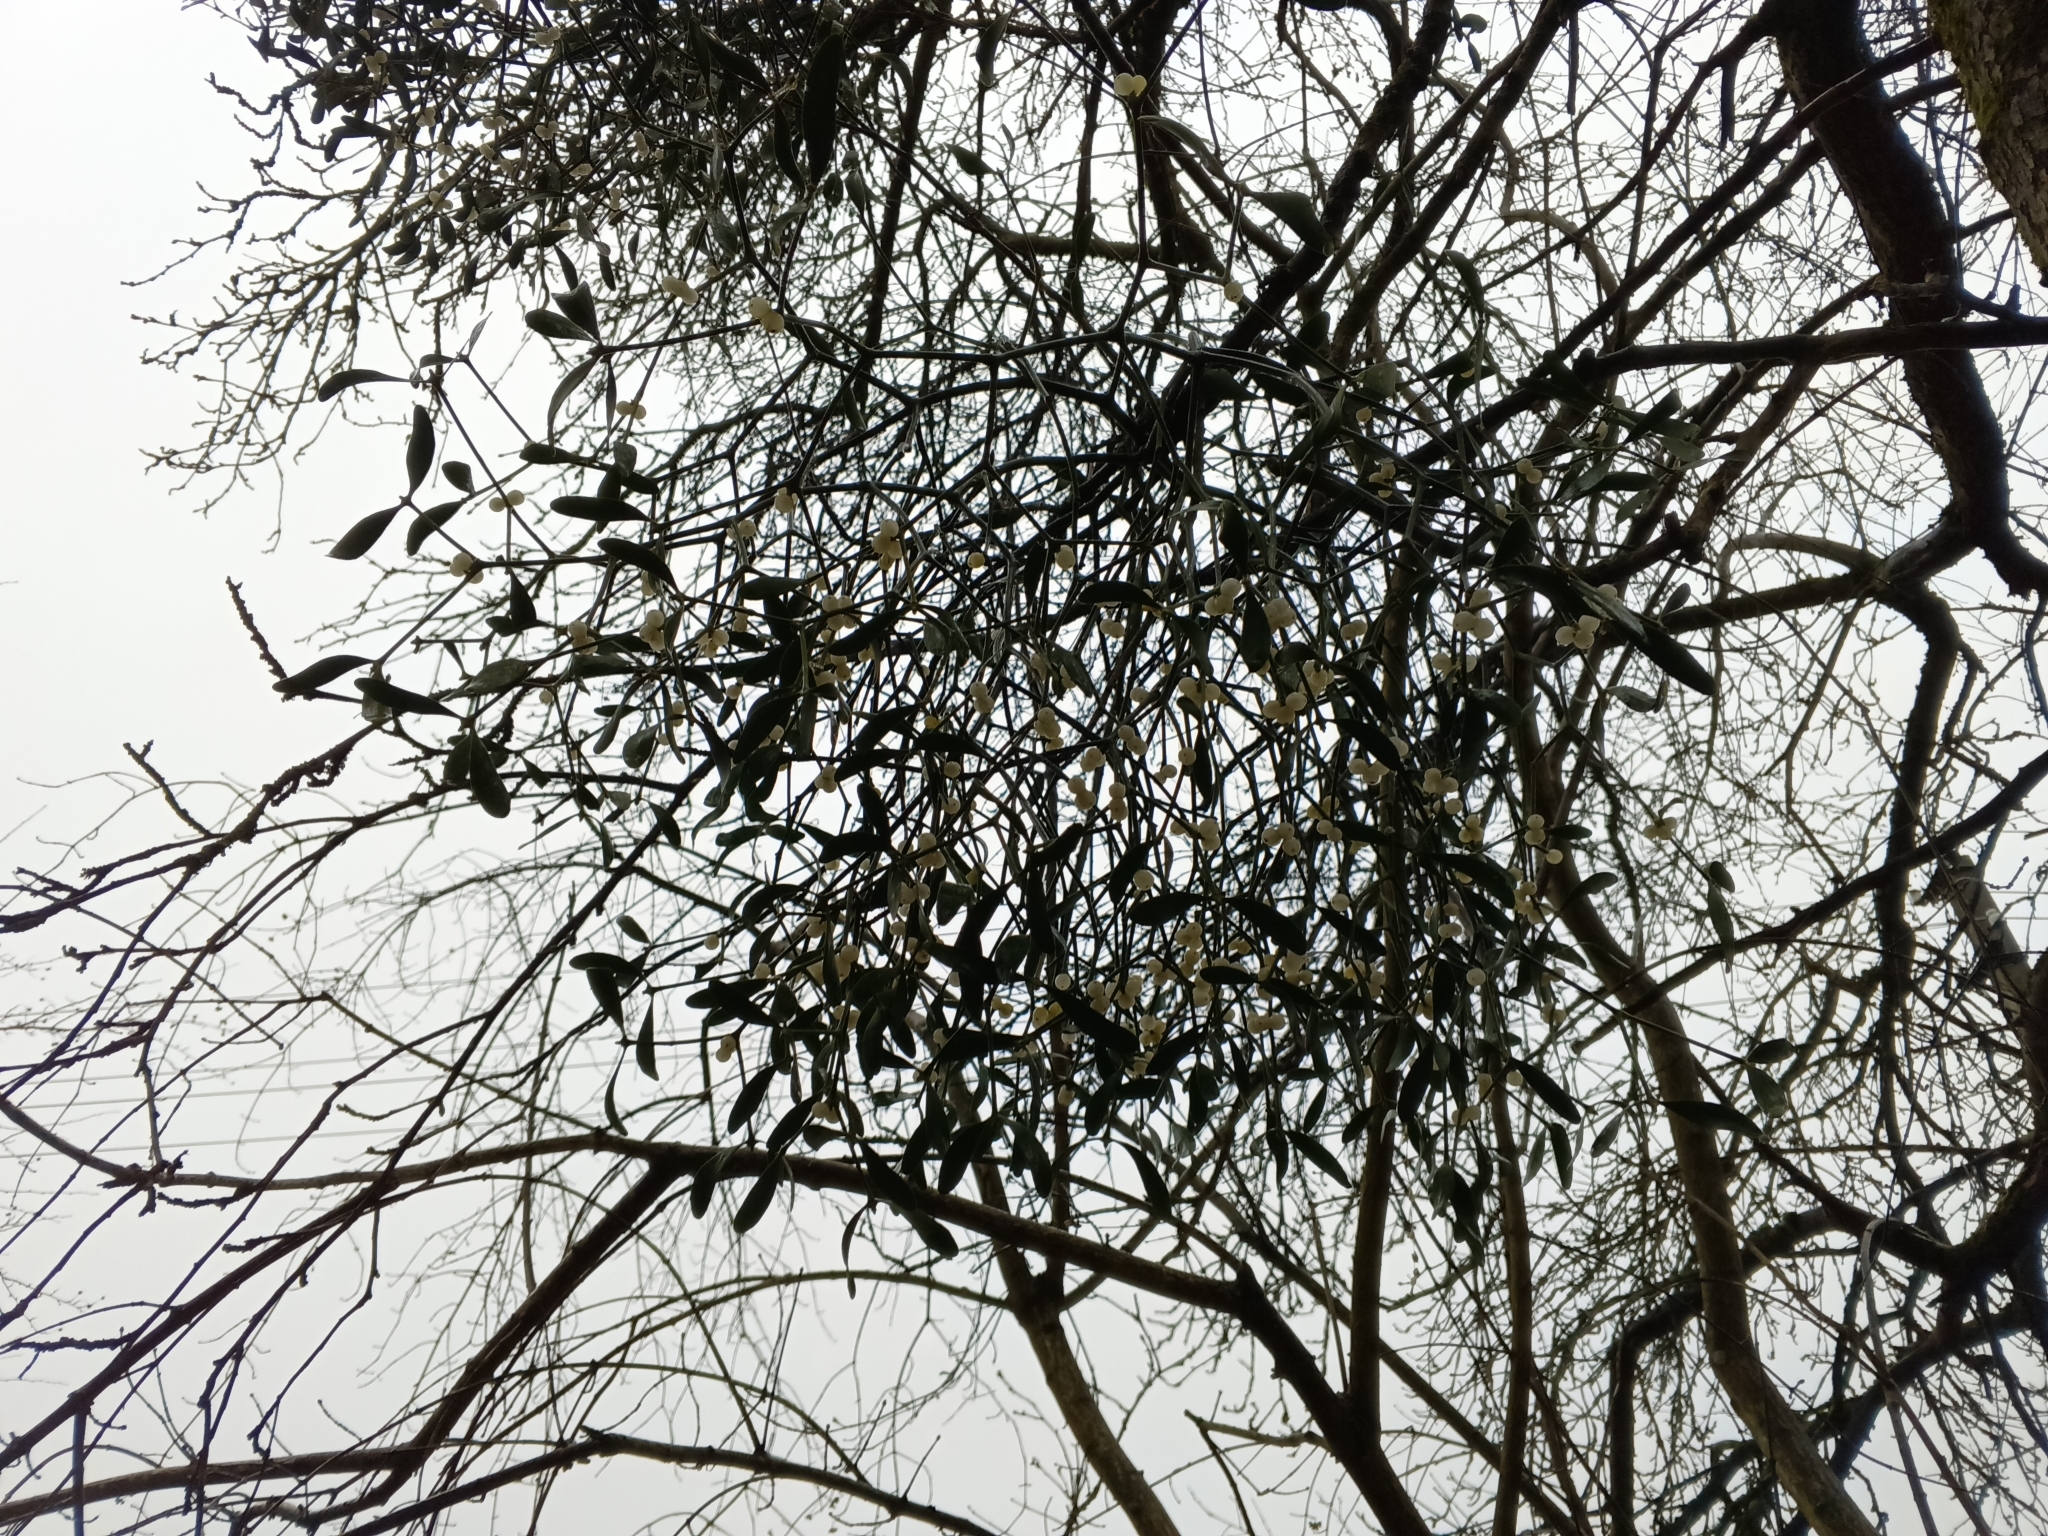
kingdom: Plantae
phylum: Tracheophyta
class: Magnoliopsida
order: Santalales
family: Viscaceae
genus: Viscum
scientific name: Viscum album
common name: Mistletoe
